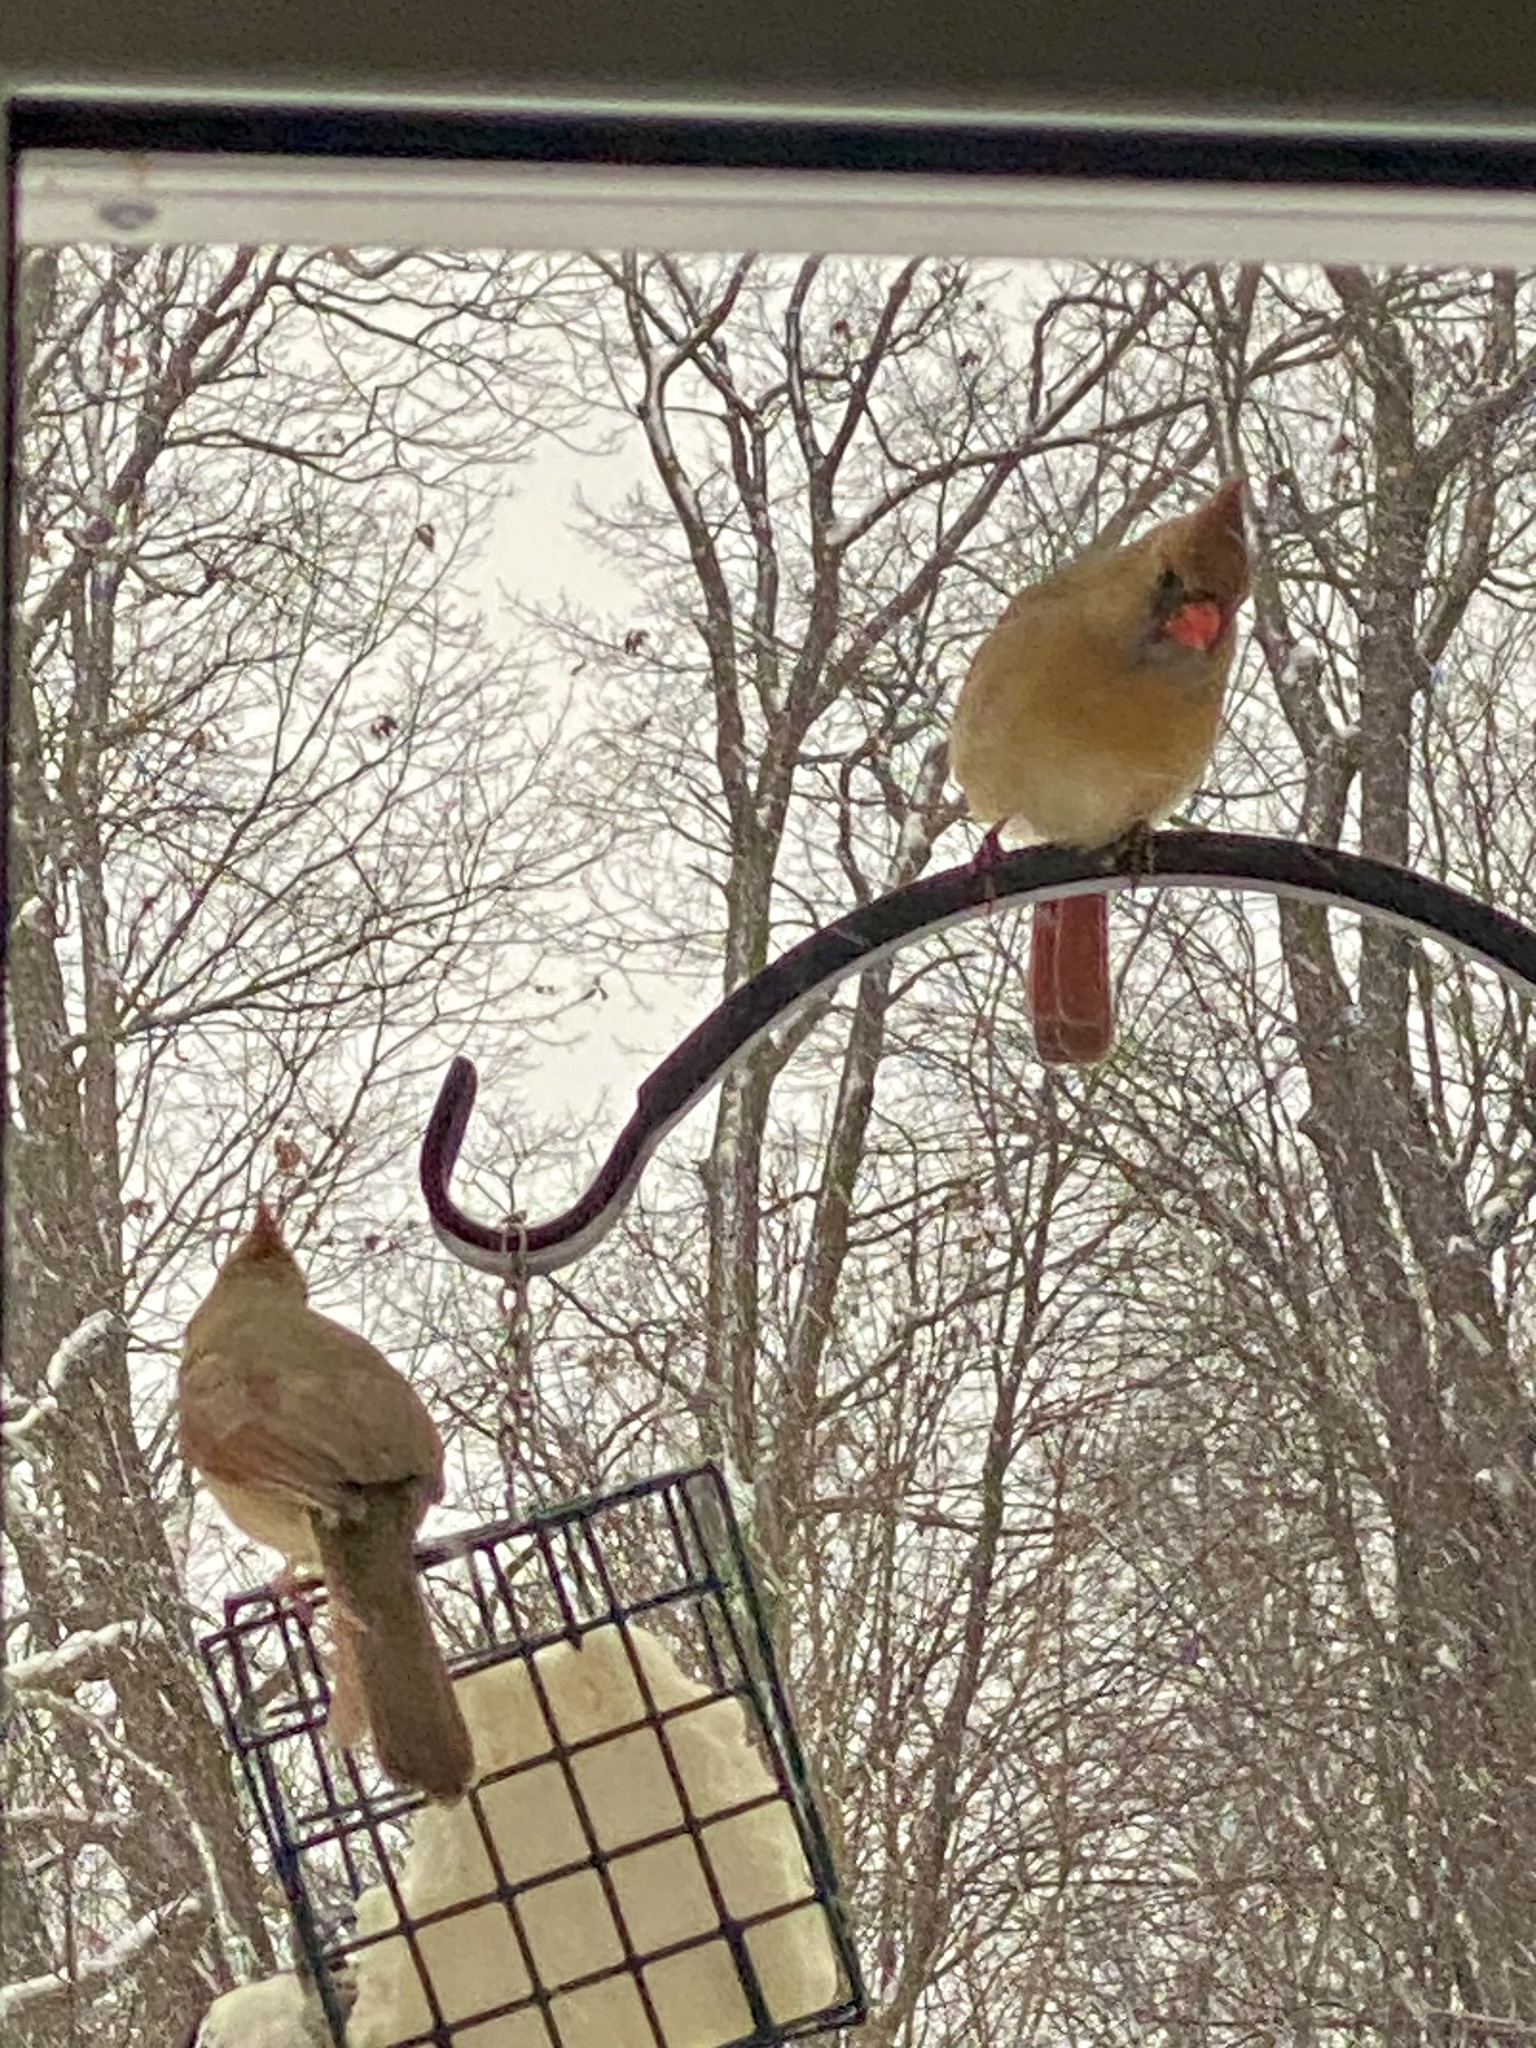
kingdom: Animalia
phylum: Chordata
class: Aves
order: Passeriformes
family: Cardinalidae
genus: Cardinalis
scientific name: Cardinalis cardinalis
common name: Northern cardinal
